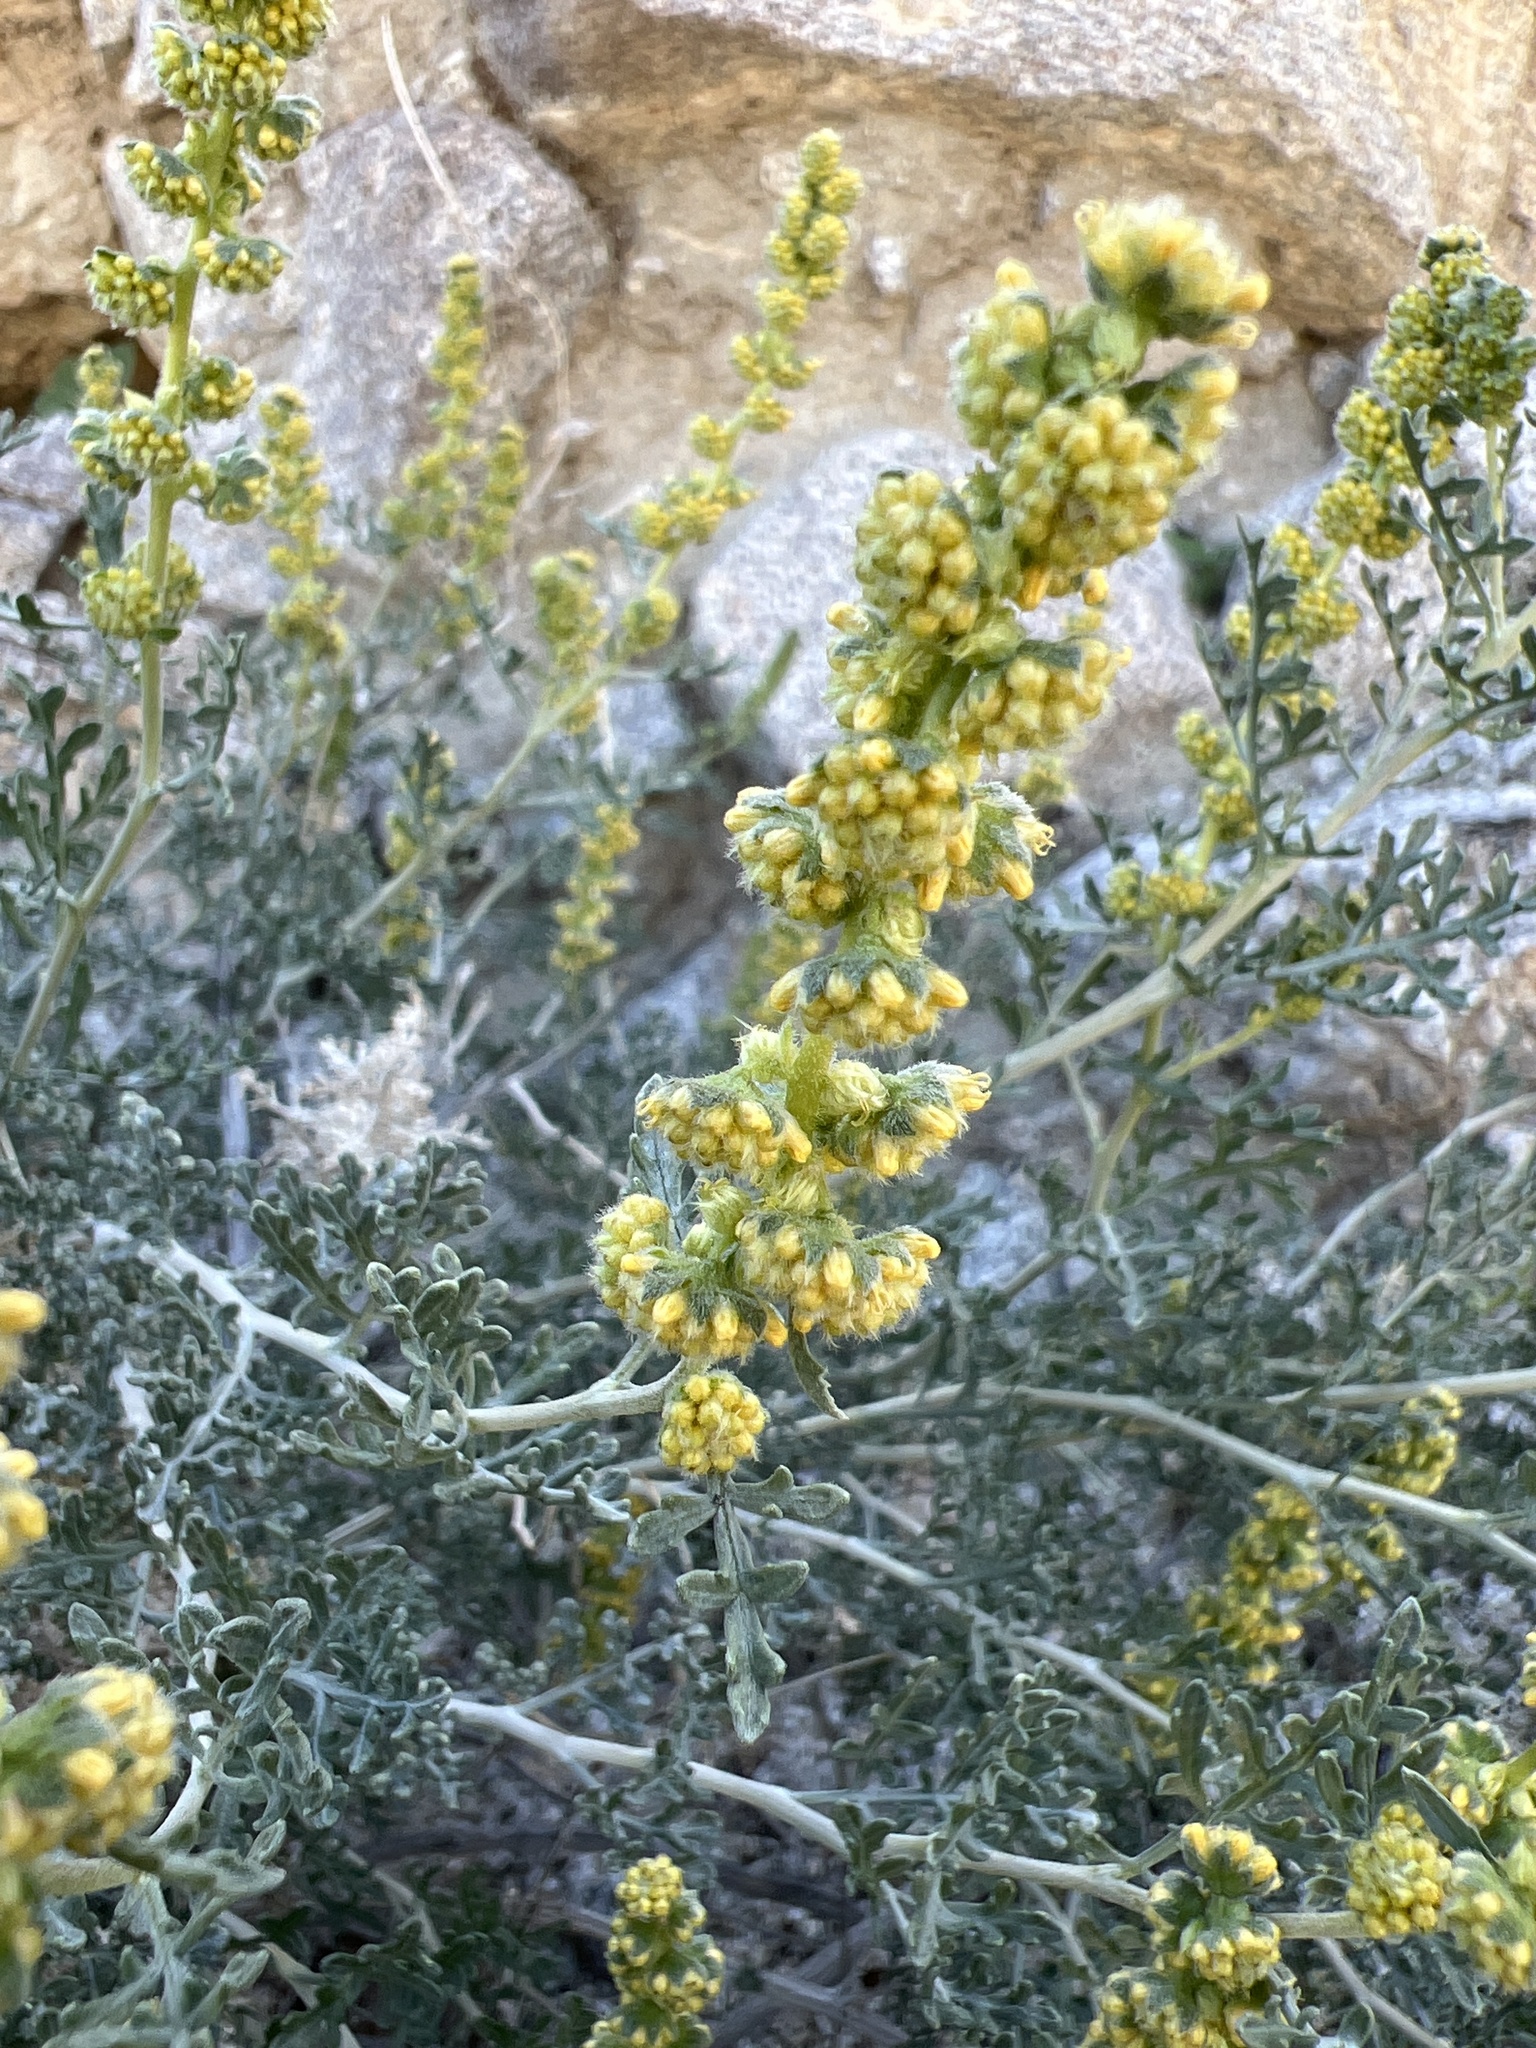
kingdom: Plantae
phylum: Tracheophyta
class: Magnoliopsida
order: Asterales
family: Asteraceae
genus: Ambrosia
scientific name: Ambrosia dumosa
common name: Bur-sage
